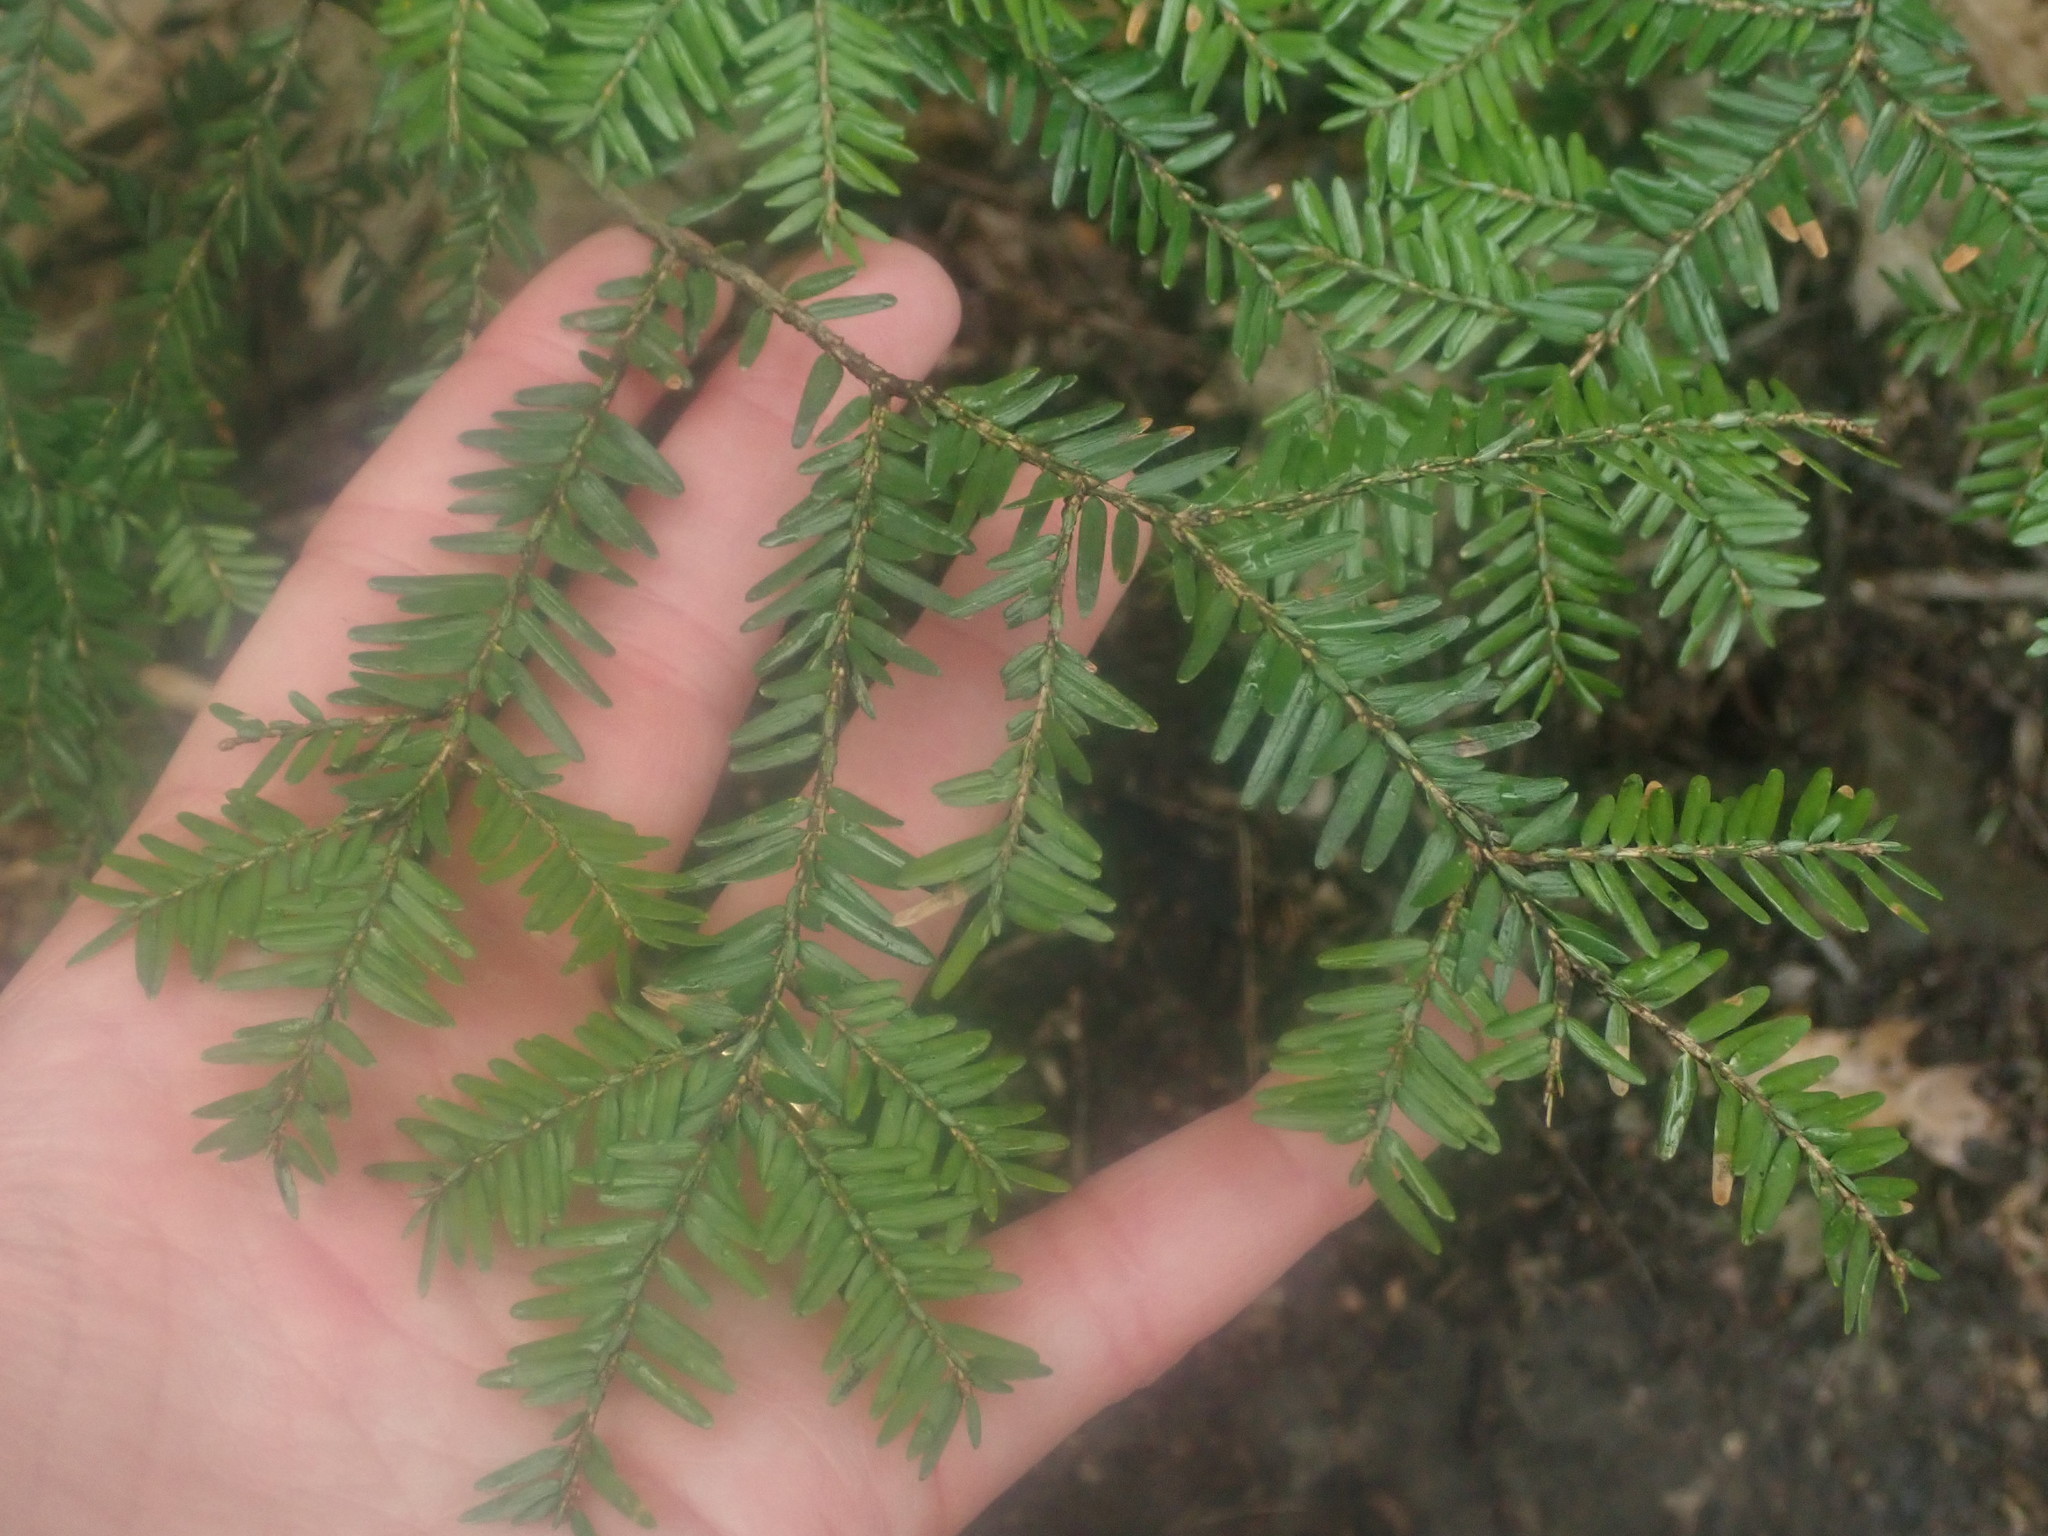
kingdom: Plantae
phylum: Tracheophyta
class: Pinopsida
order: Pinales
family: Pinaceae
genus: Tsuga
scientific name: Tsuga canadensis
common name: Eastern hemlock
